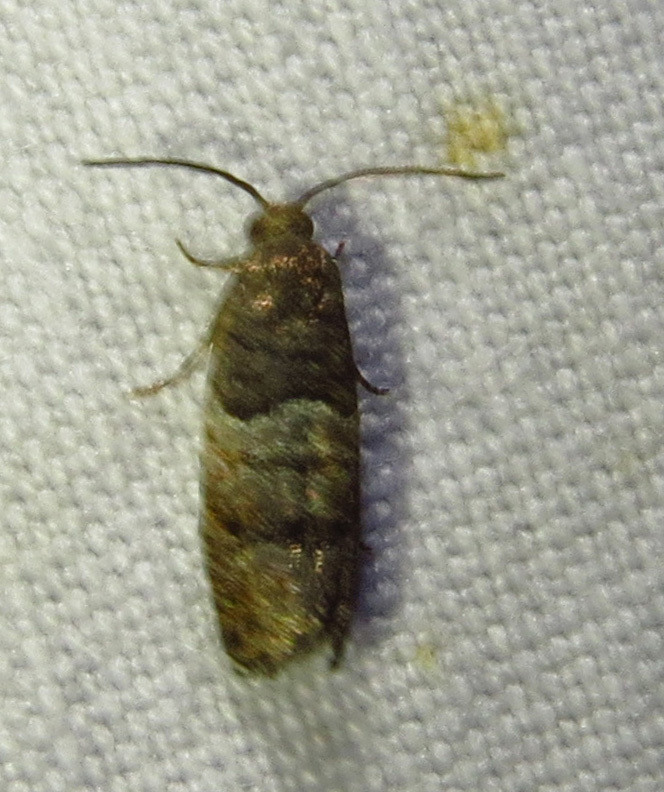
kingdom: Animalia
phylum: Arthropoda
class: Insecta
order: Lepidoptera
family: Tortricidae
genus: Larisa
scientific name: Larisa subsolana
